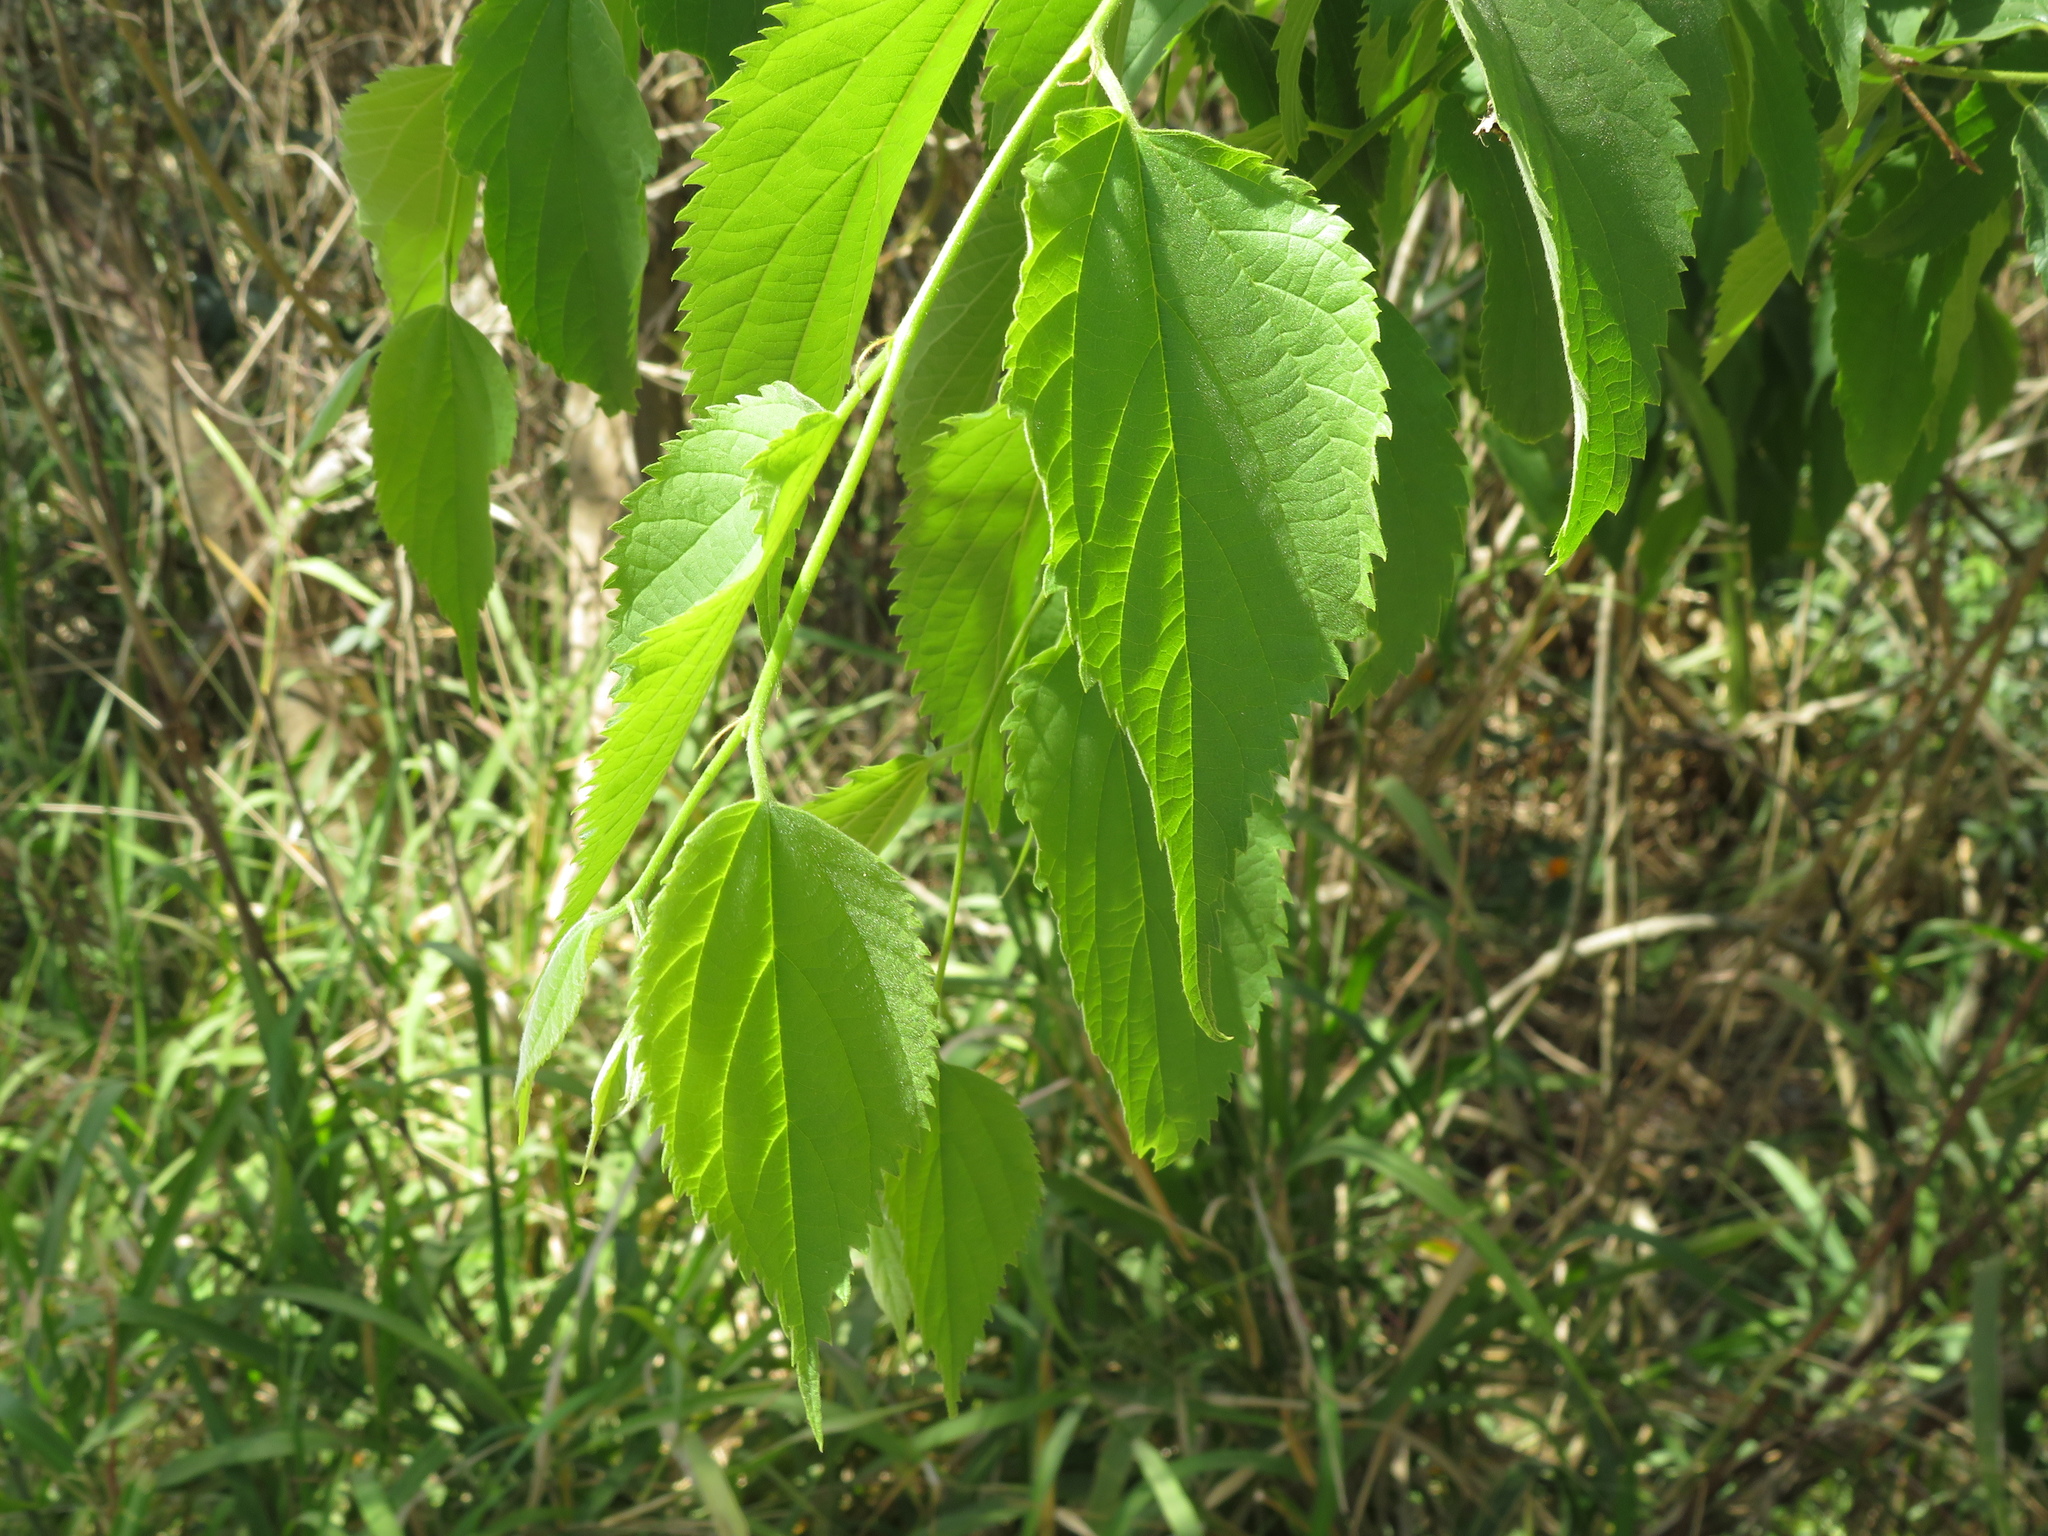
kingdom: Plantae
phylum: Tracheophyta
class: Magnoliopsida
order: Rosales
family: Cannabaceae
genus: Celtis
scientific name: Celtis australis
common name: European hackberry
